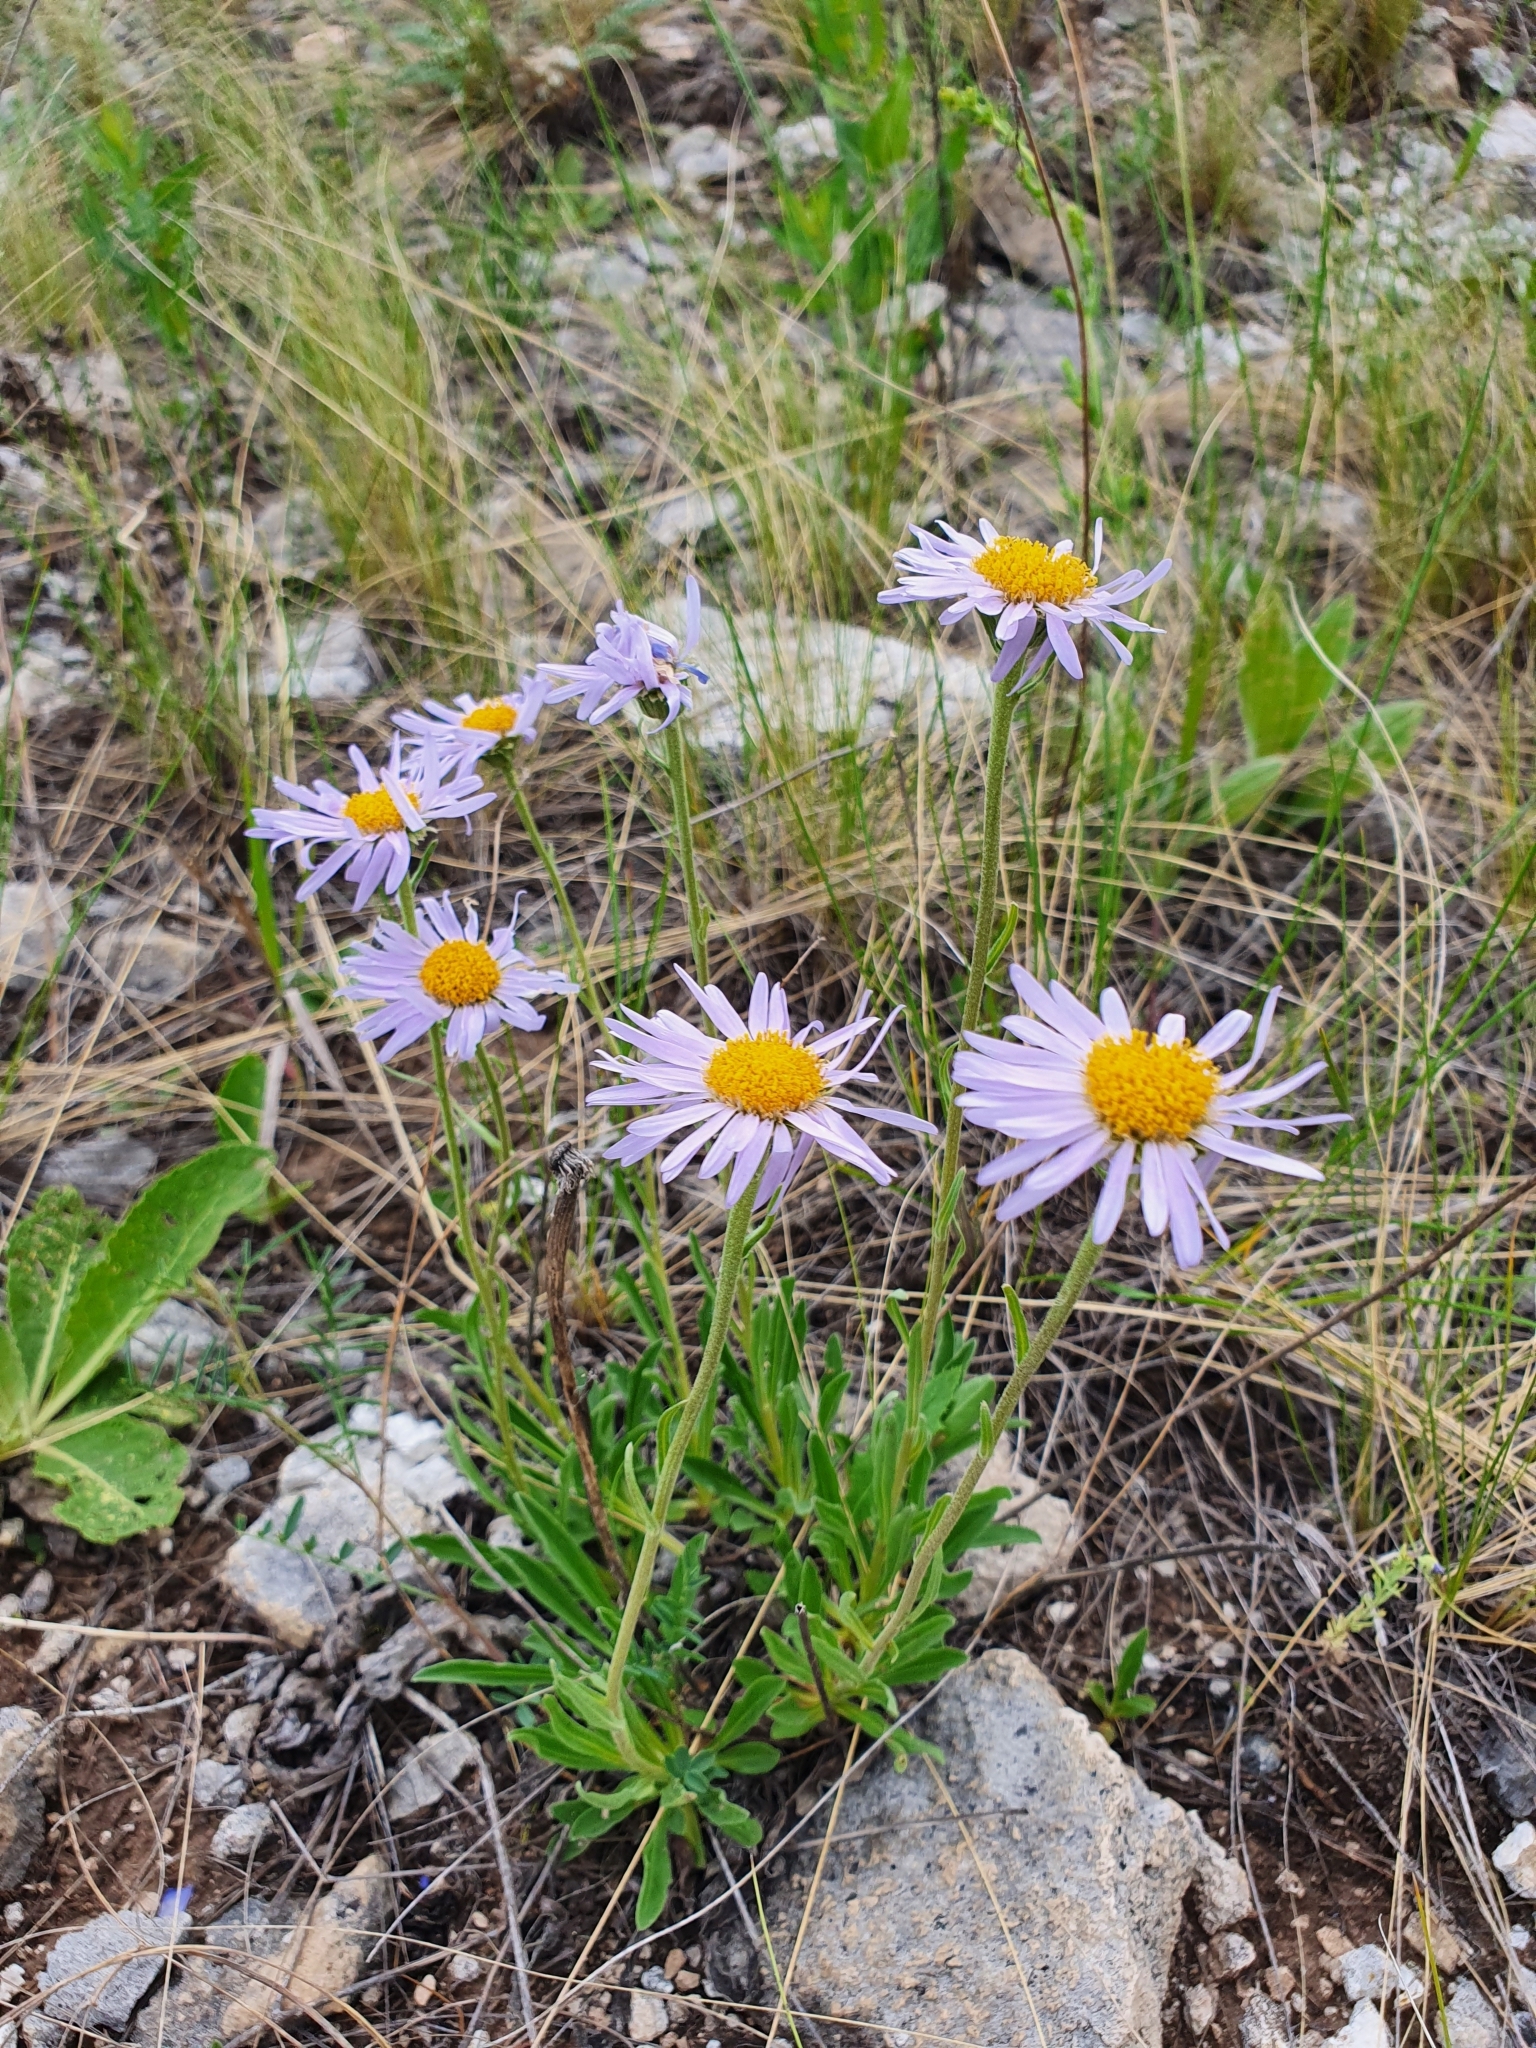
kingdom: Plantae
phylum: Tracheophyta
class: Magnoliopsida
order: Asterales
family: Asteraceae
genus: Aster
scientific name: Aster alpinus
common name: Alpine aster
